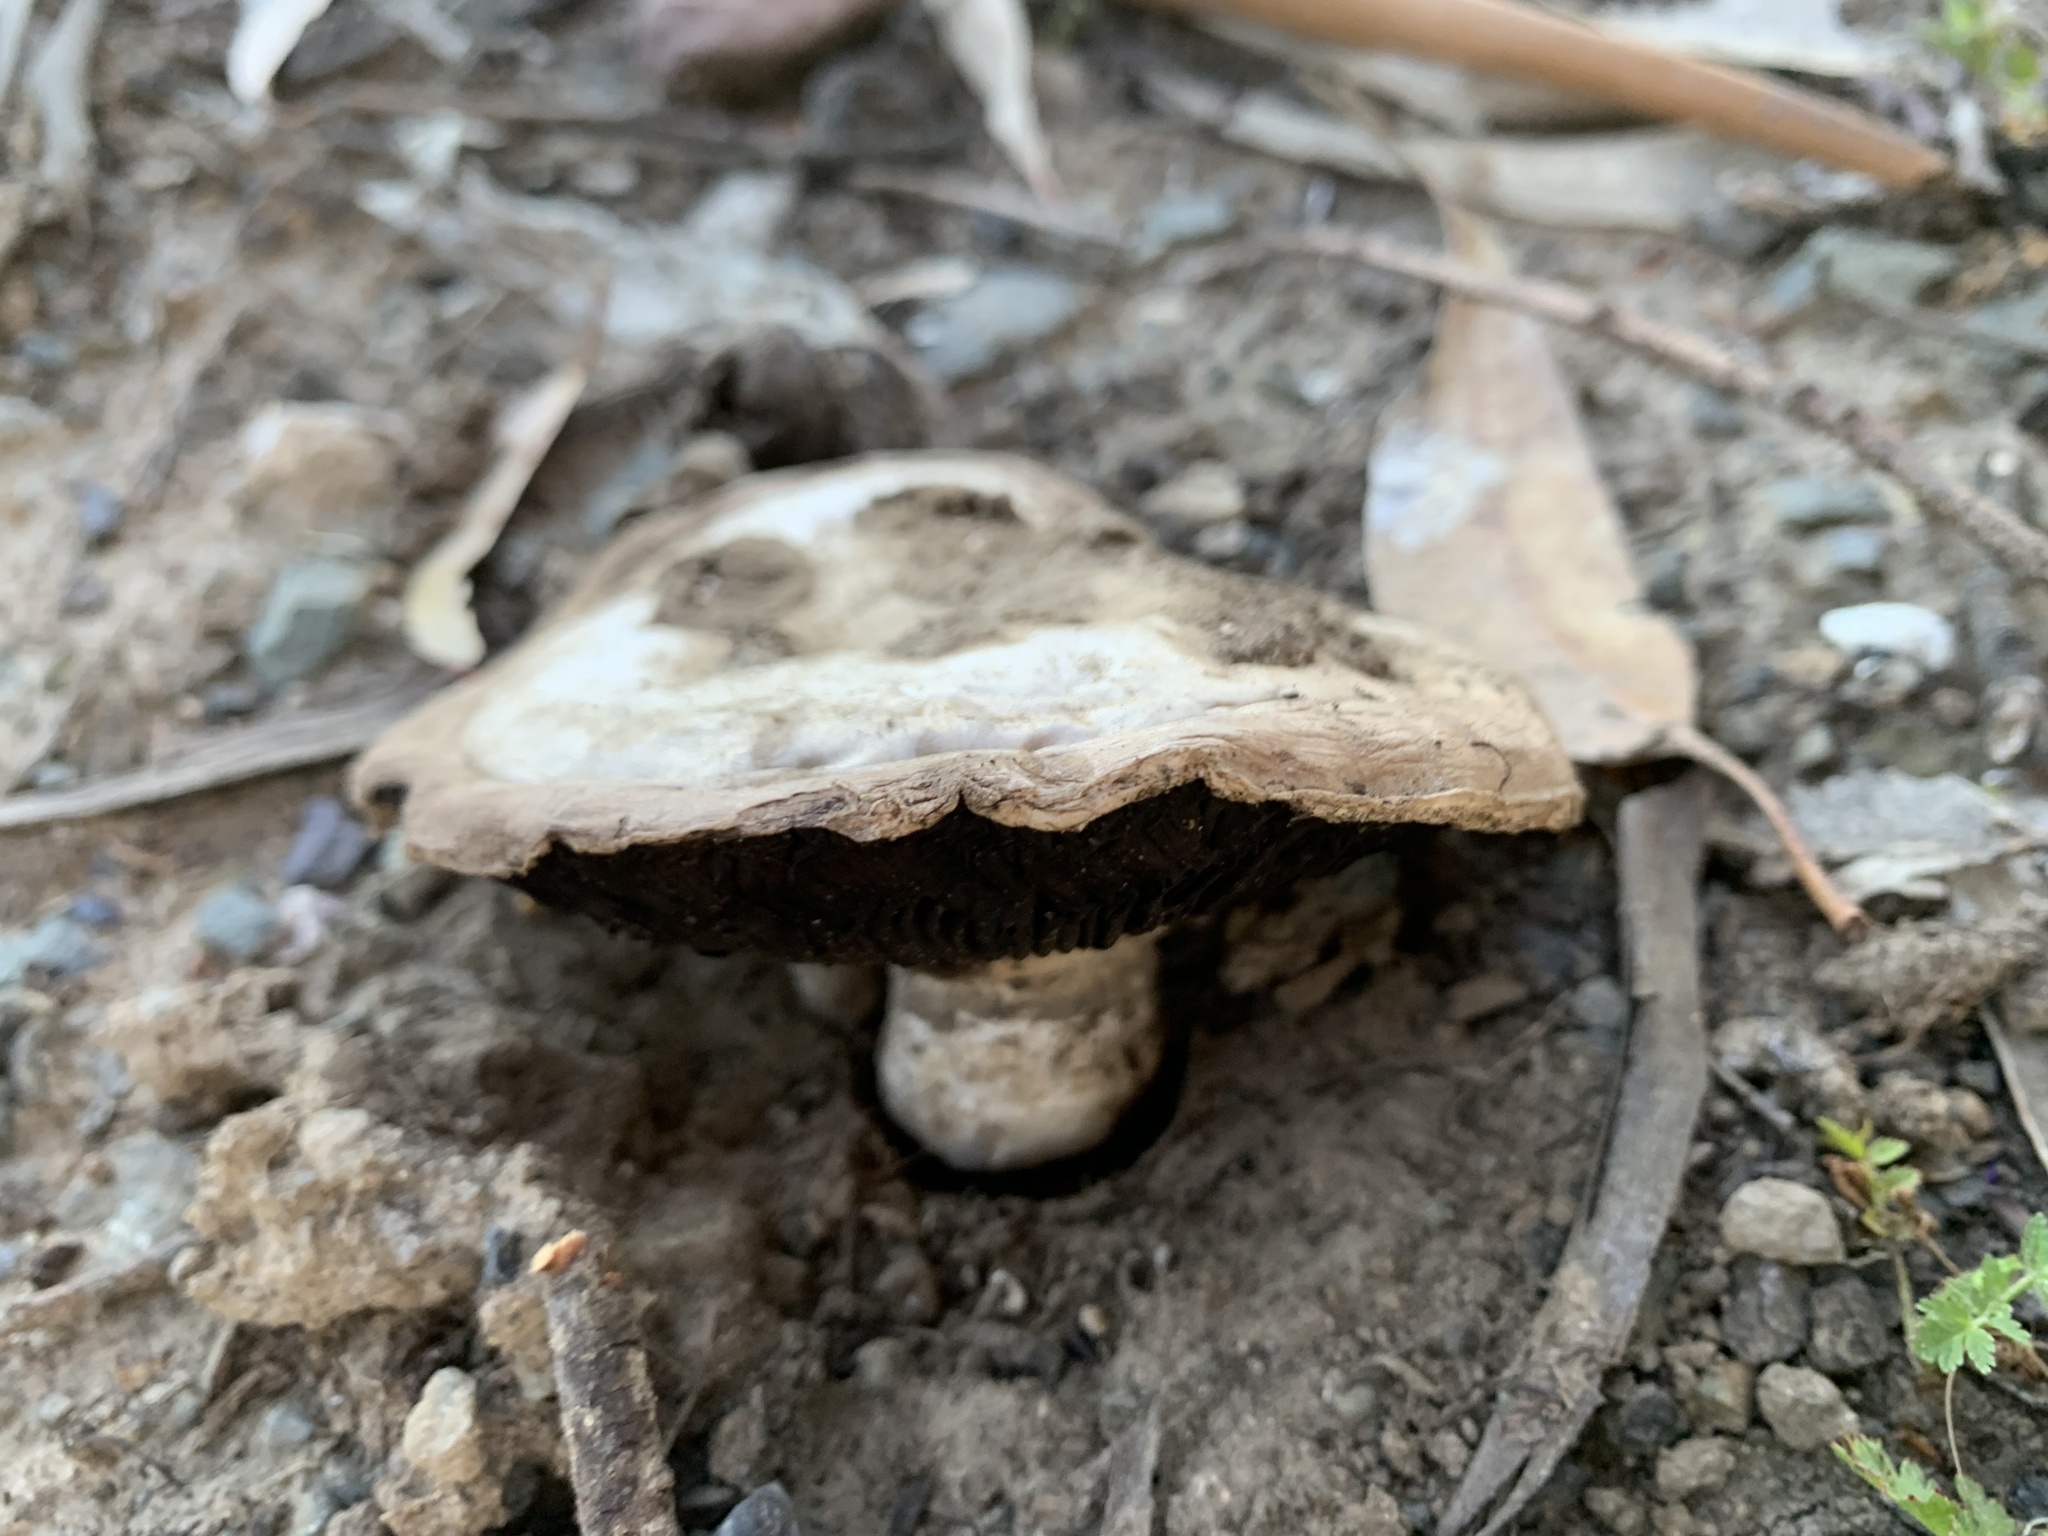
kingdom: Fungi
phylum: Basidiomycota
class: Agaricomycetes
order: Agaricales
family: Agaricaceae
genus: Agaricus
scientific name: Agaricus bitorquis
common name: Pavement mushroom
